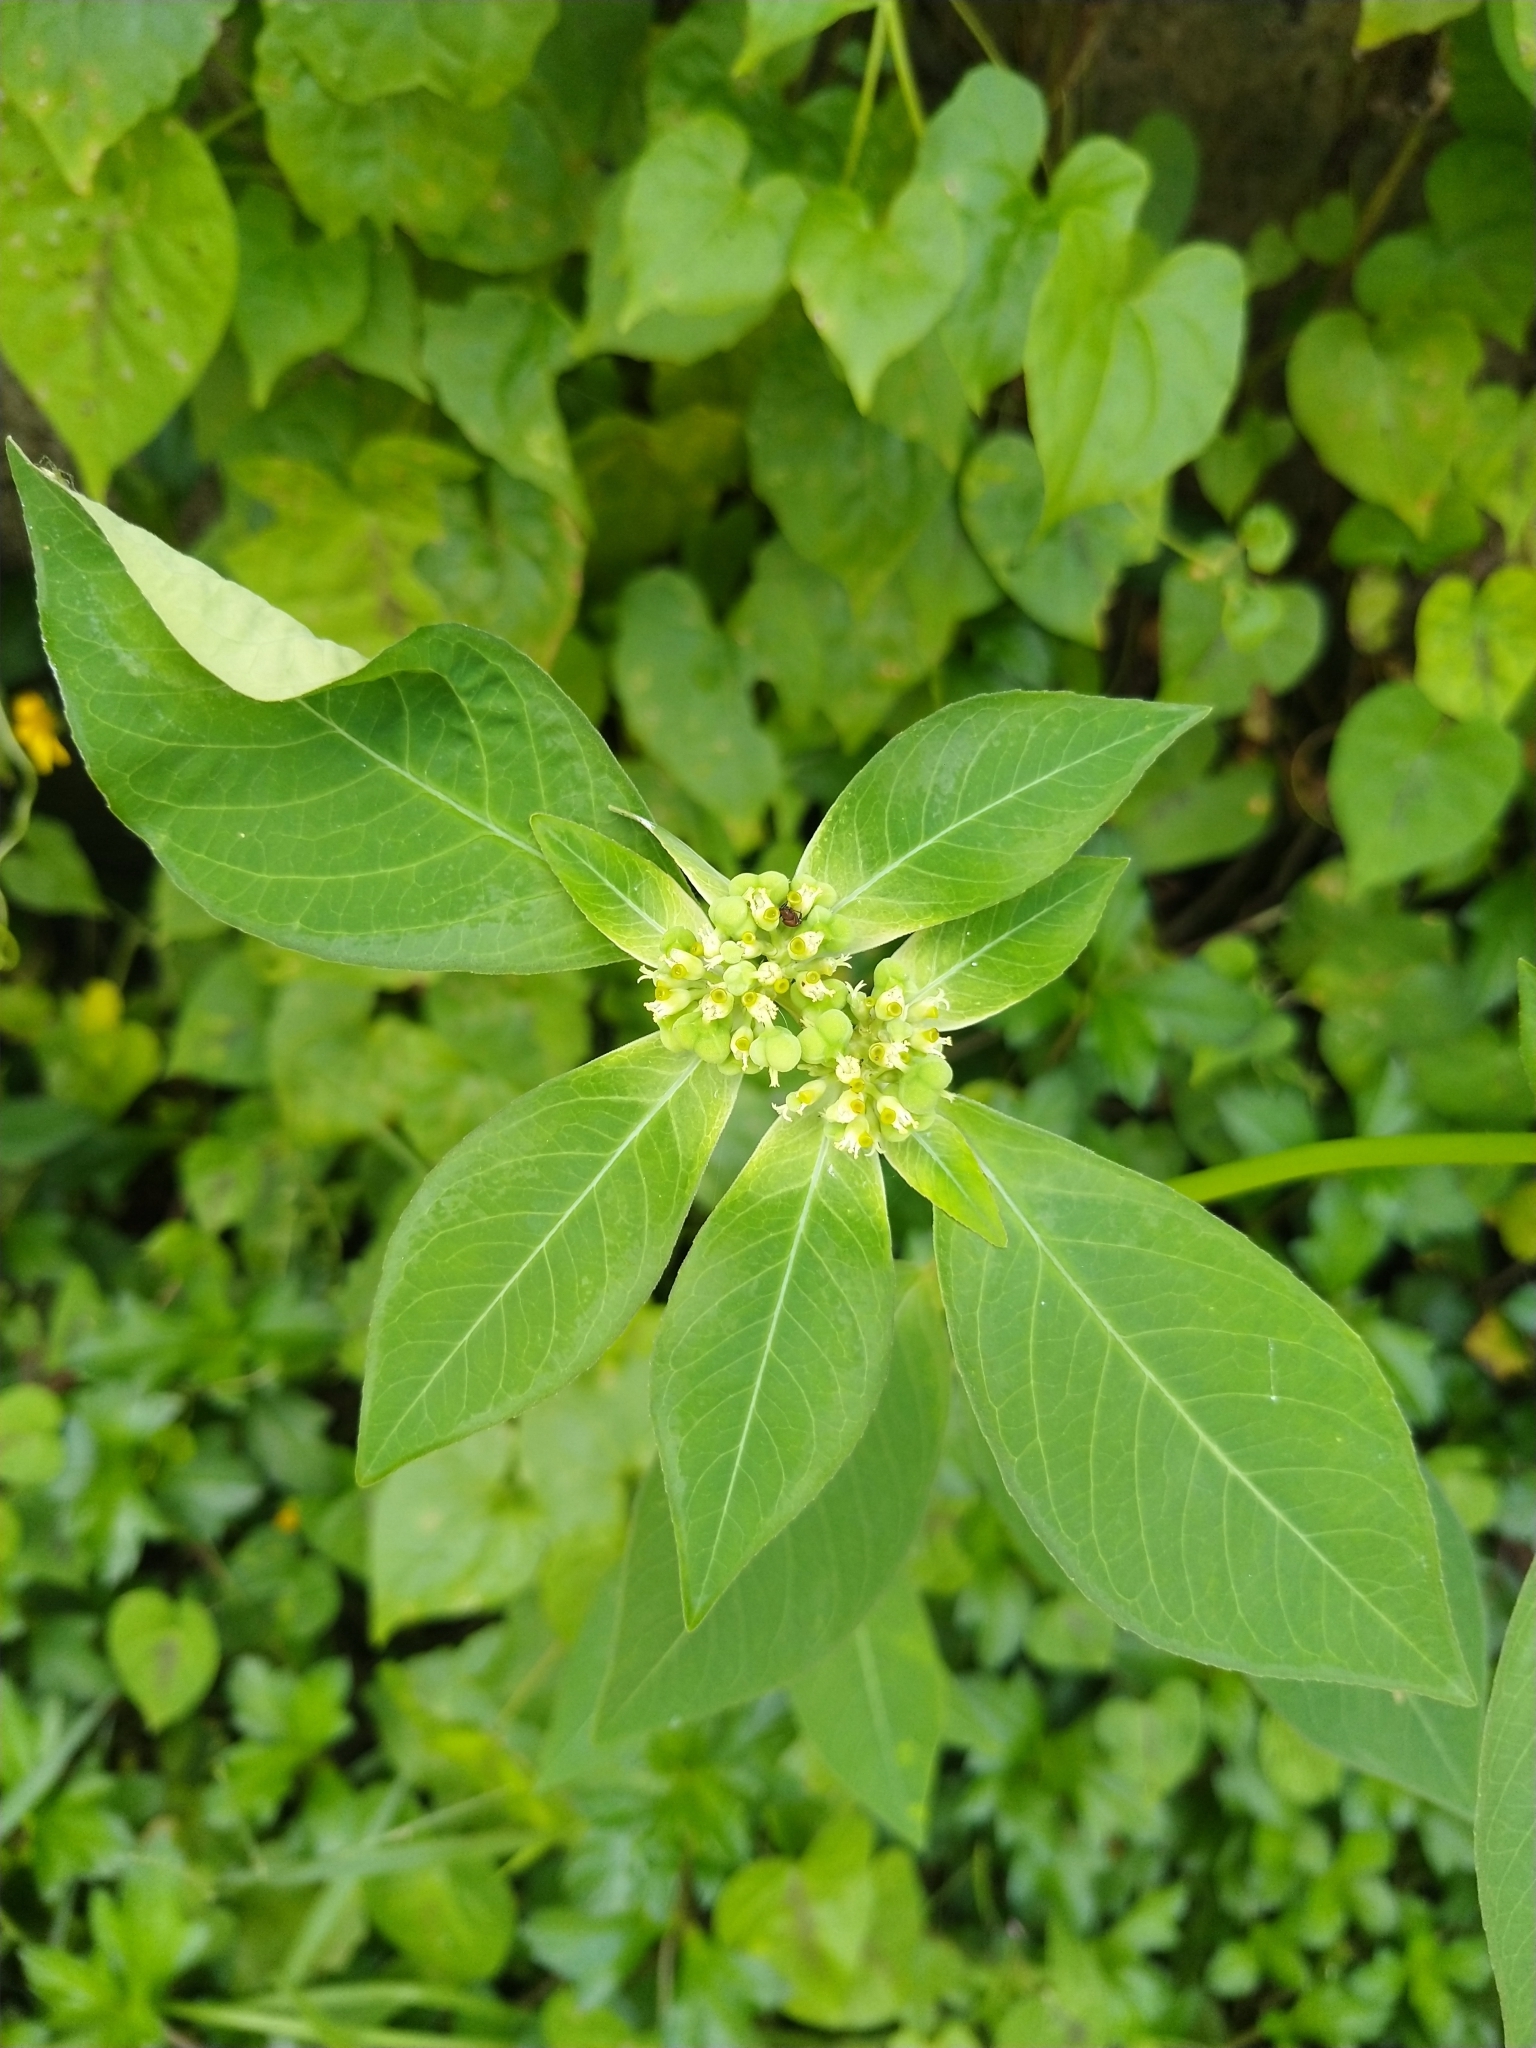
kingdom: Plantae
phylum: Tracheophyta
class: Magnoliopsida
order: Malpighiales
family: Euphorbiaceae
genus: Euphorbia
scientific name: Euphorbia heterophylla
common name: Mexican fireplant
